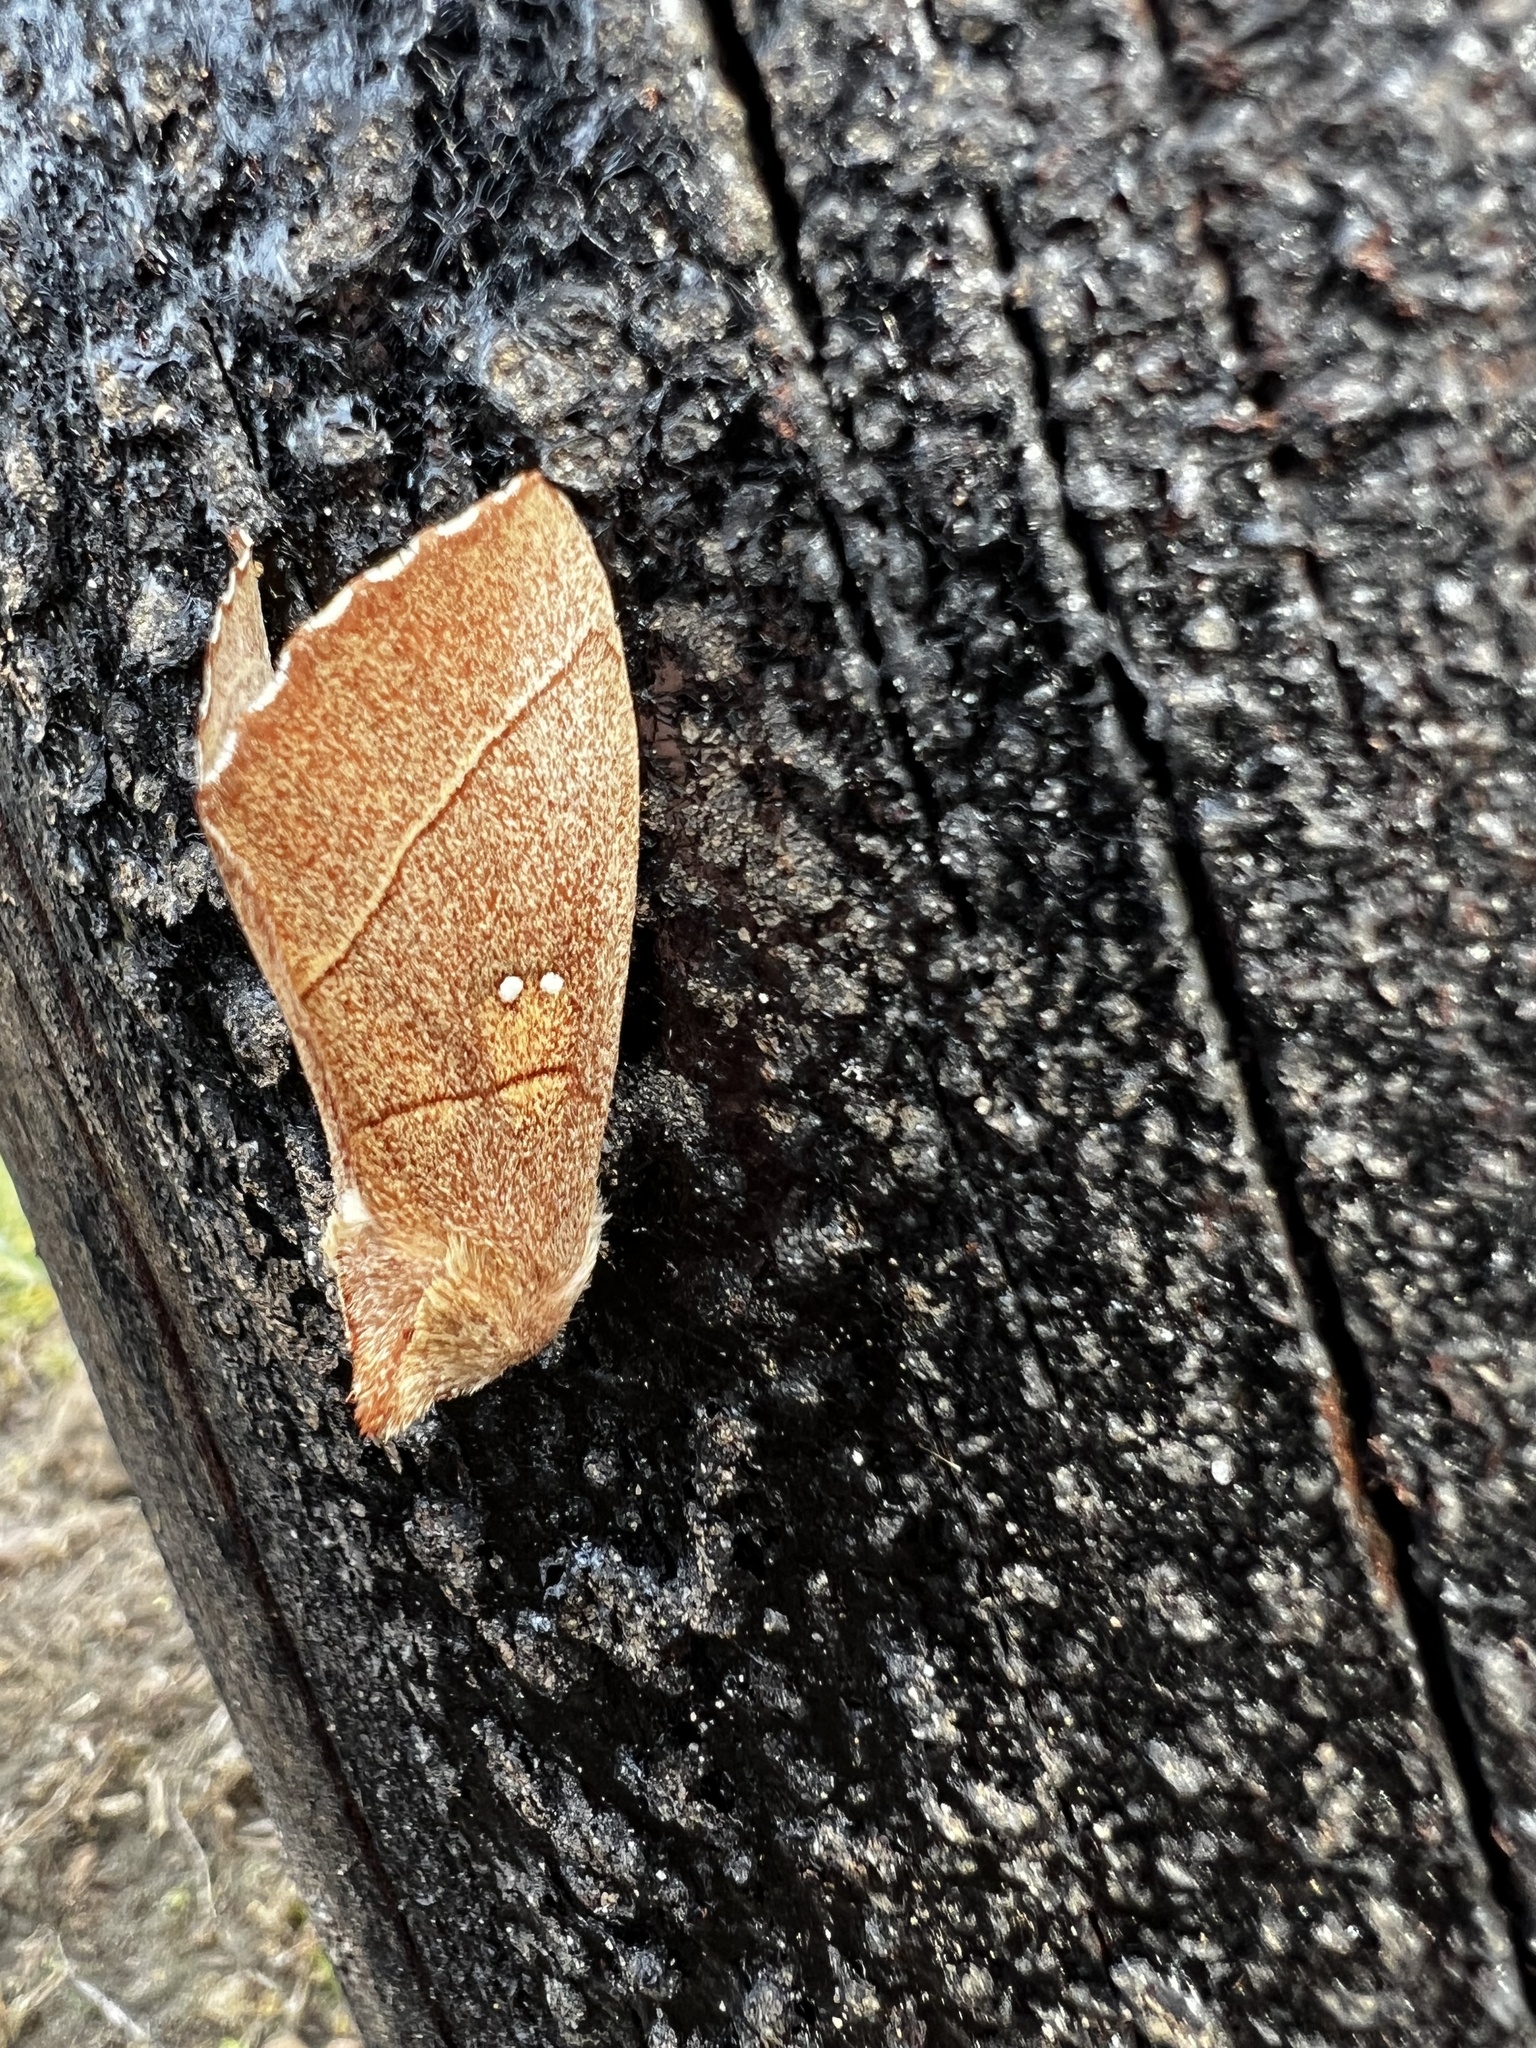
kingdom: Animalia
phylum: Arthropoda
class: Insecta
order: Lepidoptera
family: Notodontidae
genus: Nadata
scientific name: Nadata gibbosa
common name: White-dotted prominent
